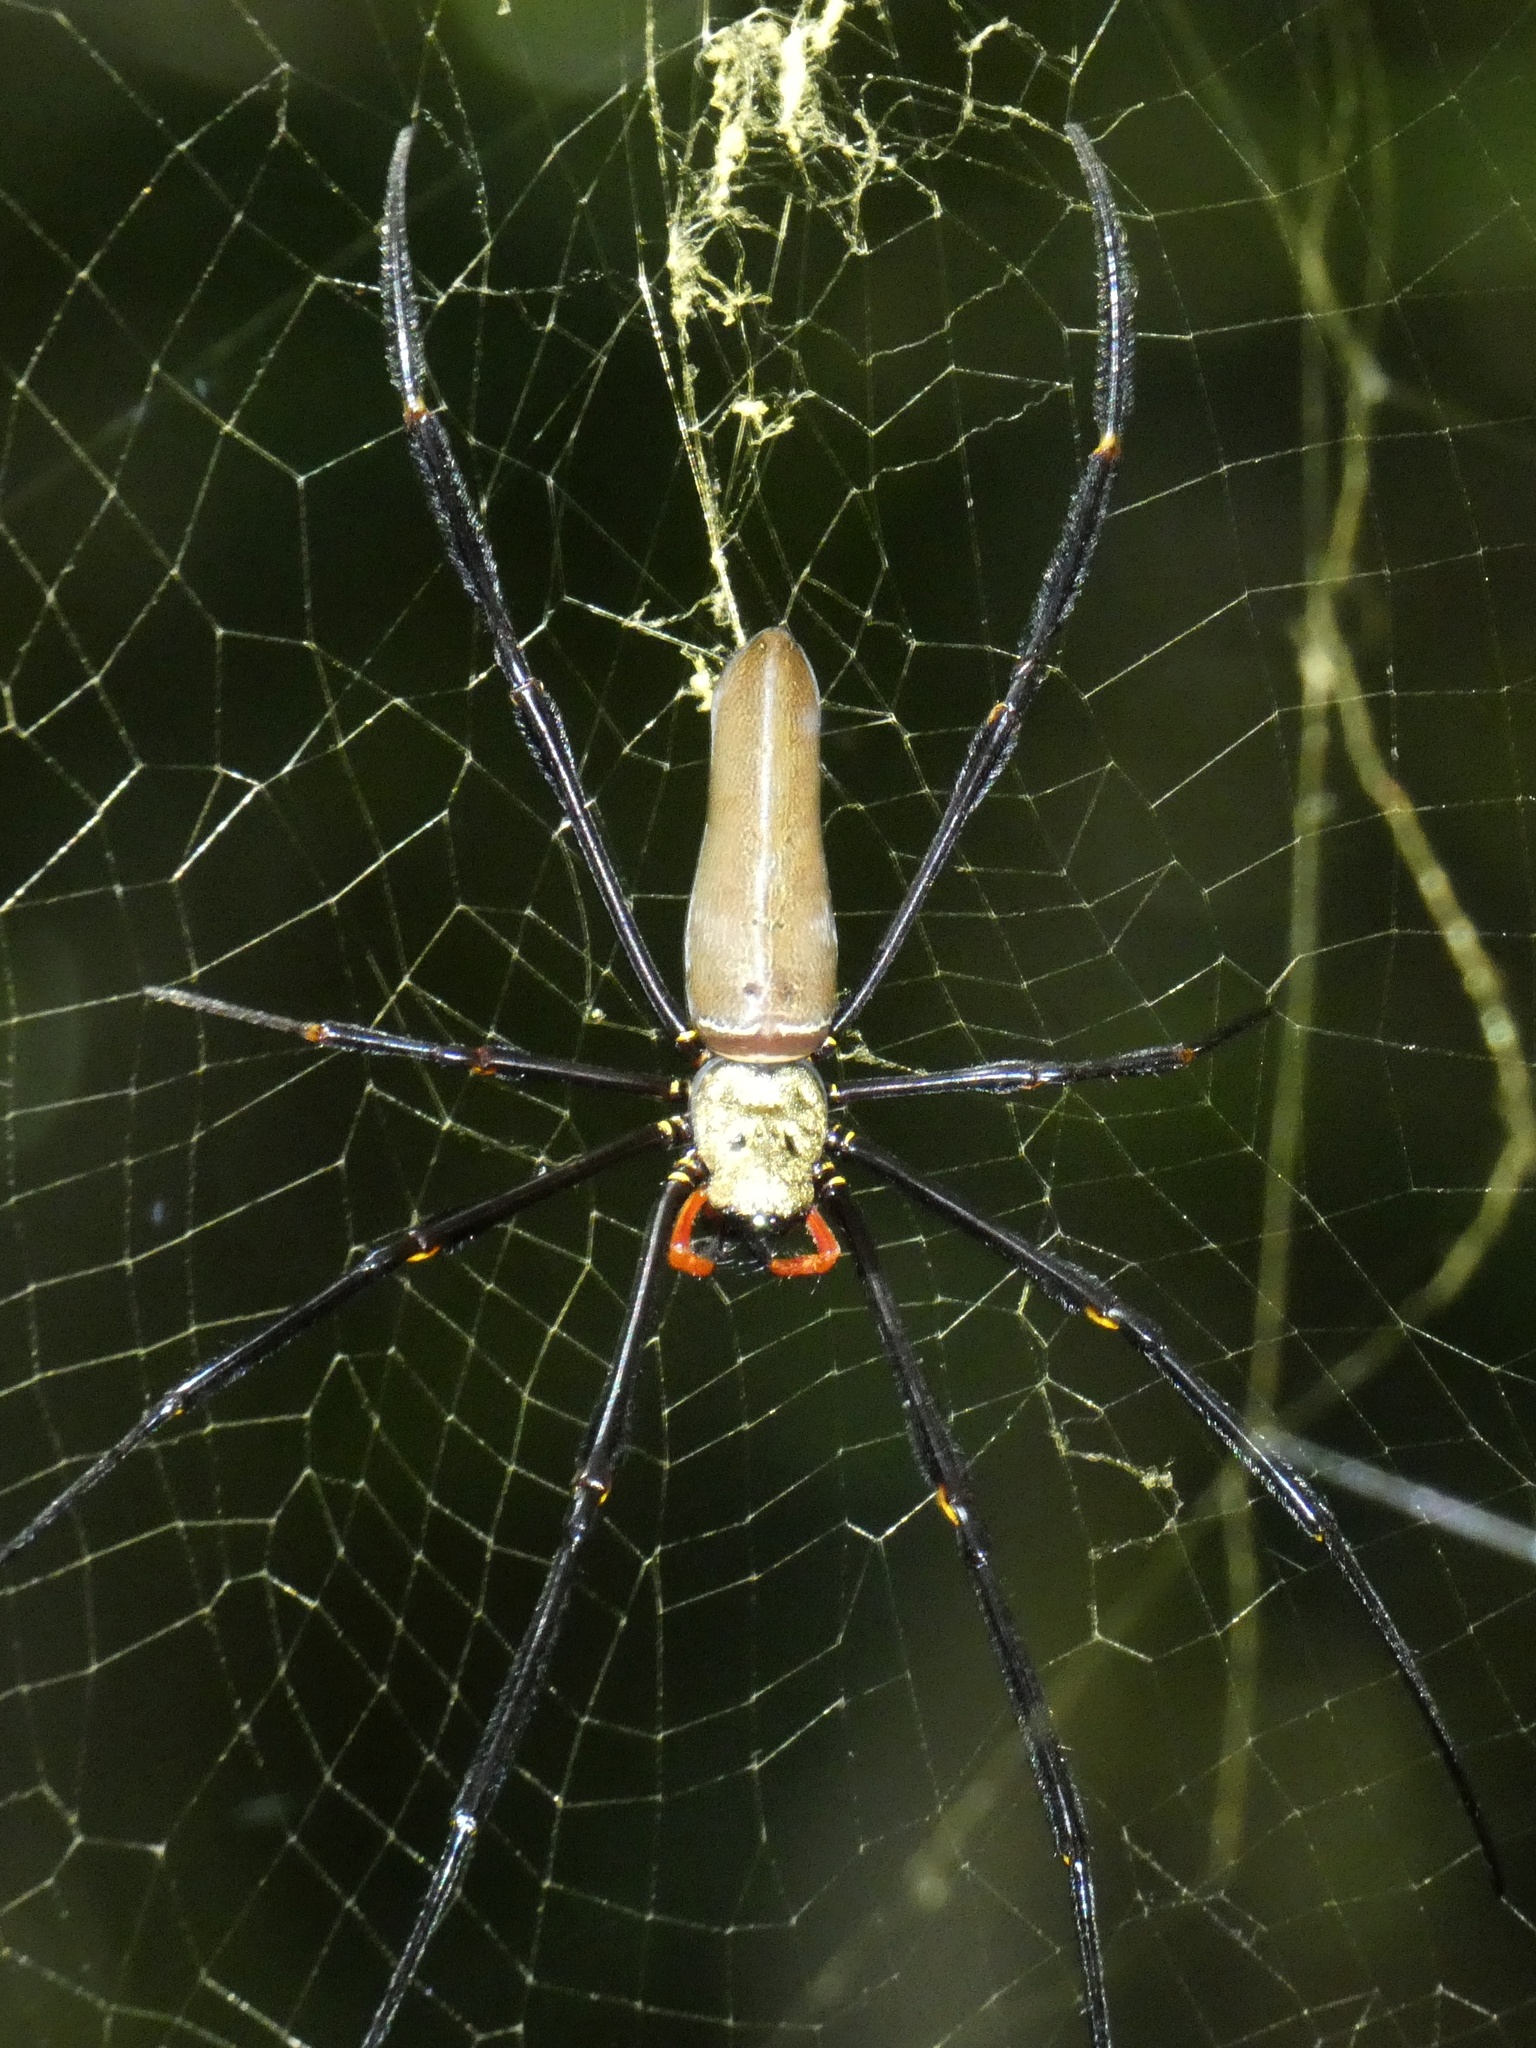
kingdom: Animalia
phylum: Arthropoda
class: Arachnida
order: Araneae
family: Araneidae
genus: Nephila
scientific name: Nephila pilipes
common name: Giant golden orb weaver
